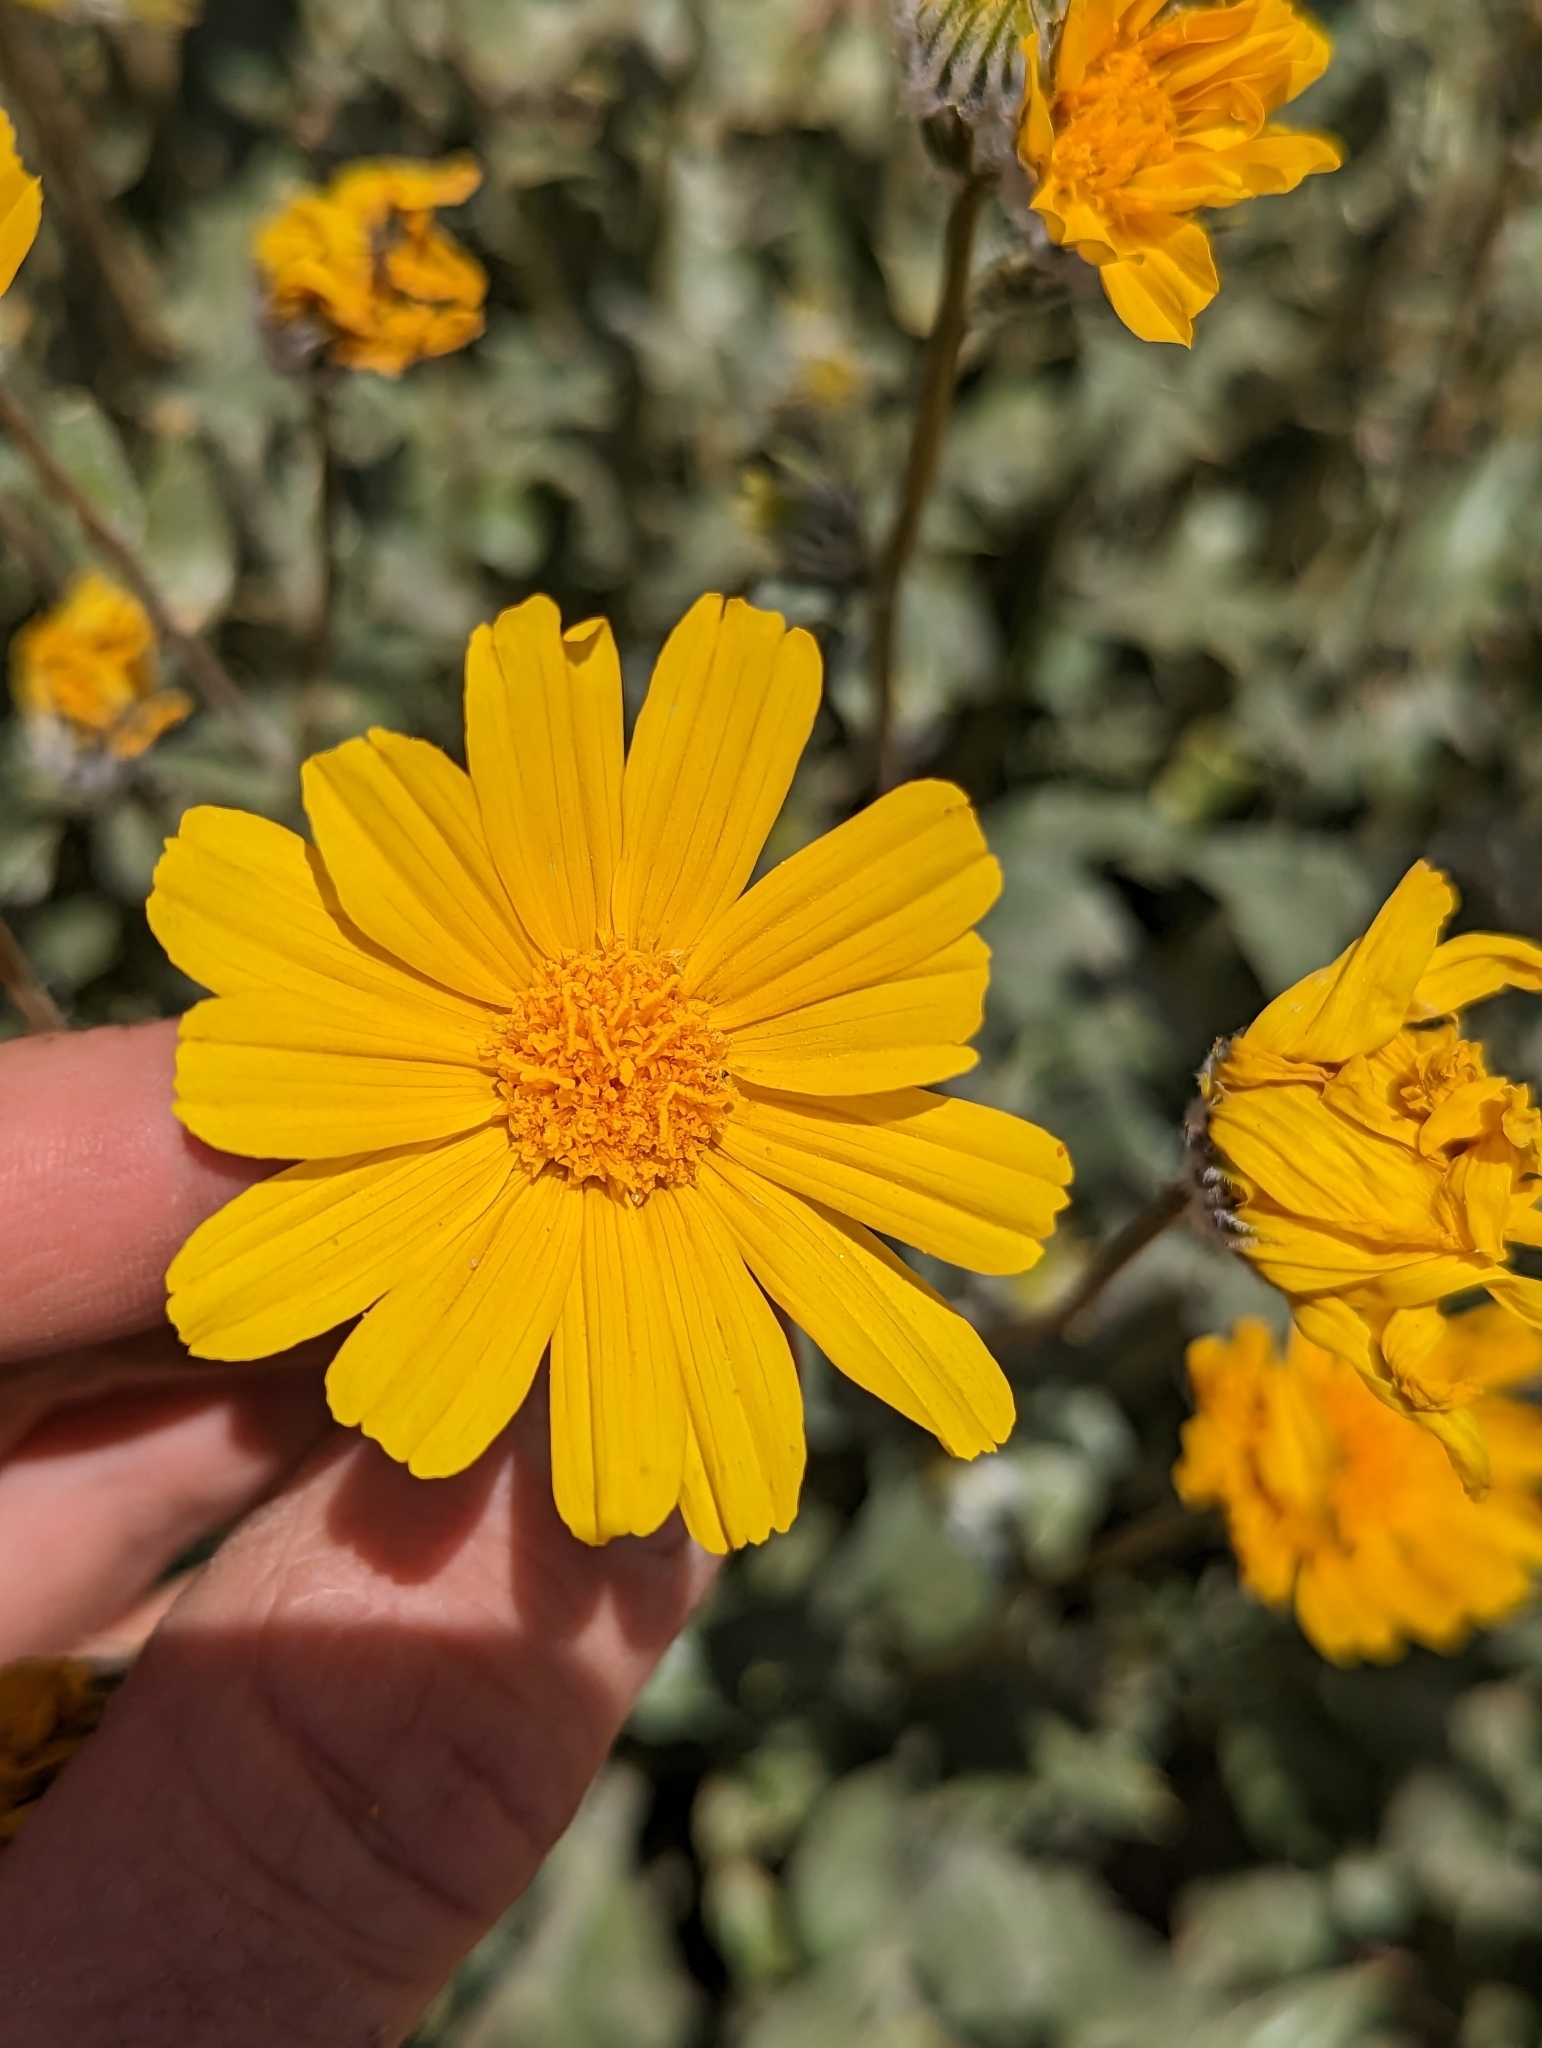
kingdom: Plantae
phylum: Tracheophyta
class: Magnoliopsida
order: Asterales
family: Asteraceae
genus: Geraea
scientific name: Geraea canescens
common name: Desert-gold
